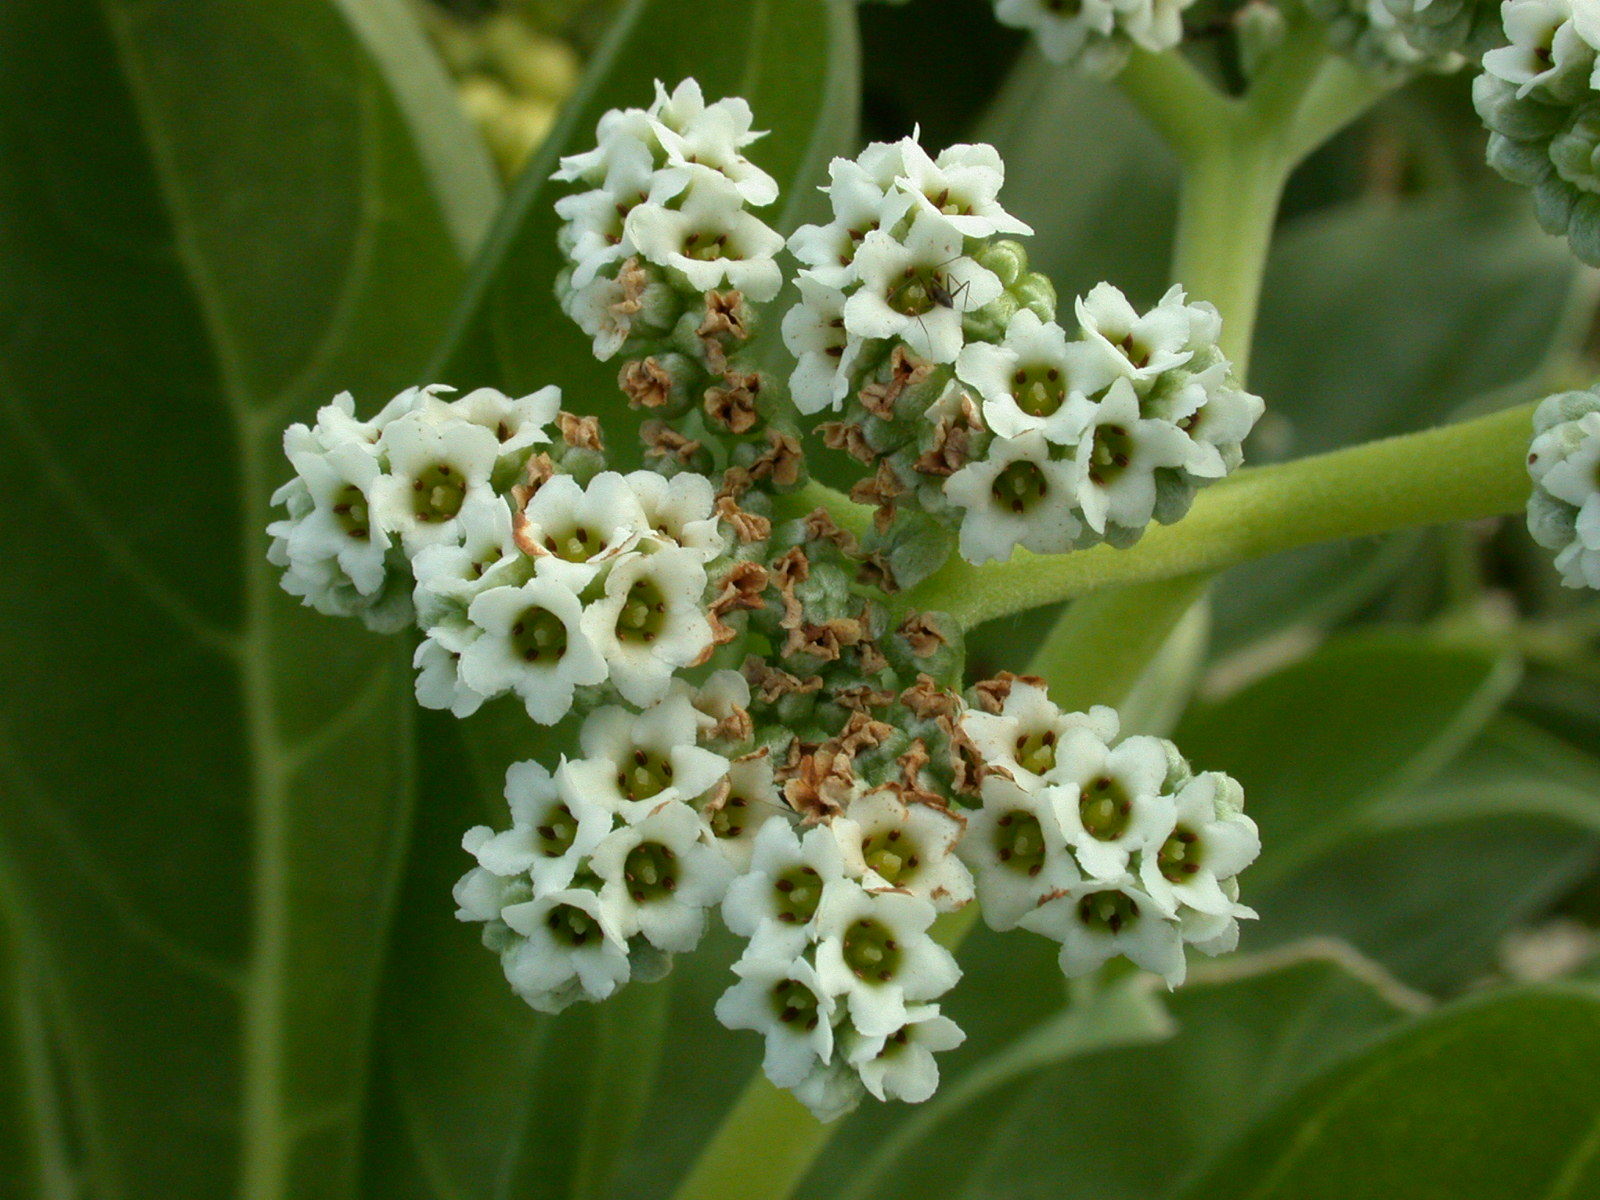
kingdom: Plantae
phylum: Tracheophyta
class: Magnoliopsida
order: Boraginales
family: Heliotropiaceae
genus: Heliotropium
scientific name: Heliotropium velutinum
